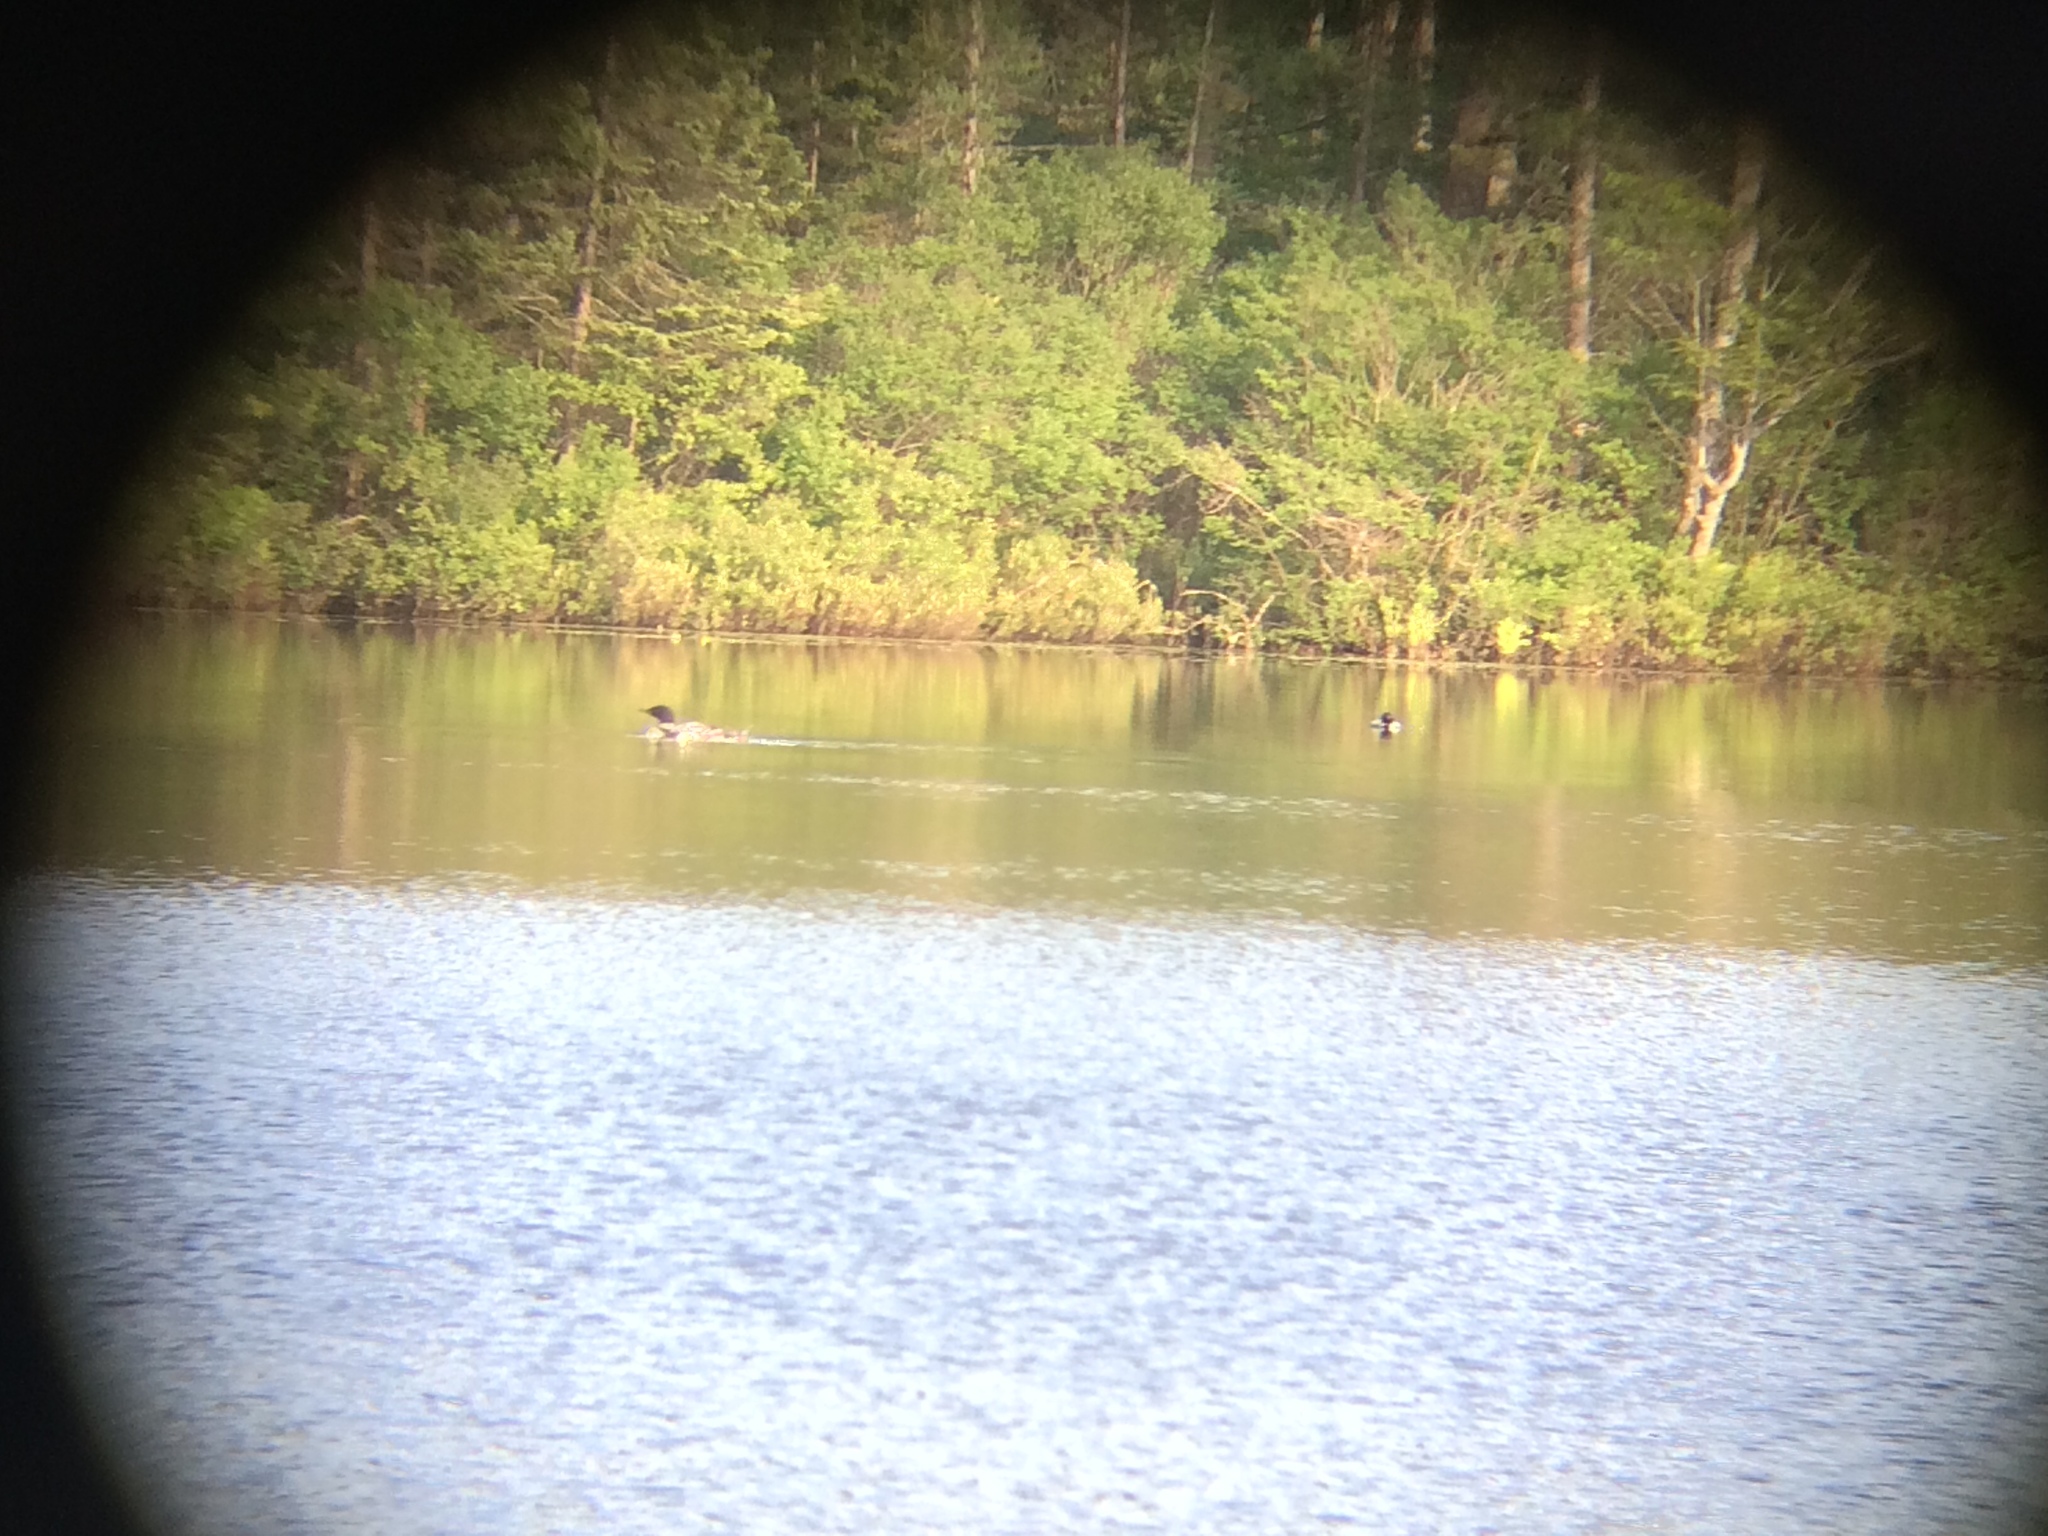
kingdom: Animalia
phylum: Chordata
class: Aves
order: Gaviiformes
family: Gaviidae
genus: Gavia
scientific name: Gavia immer
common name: Common loon
